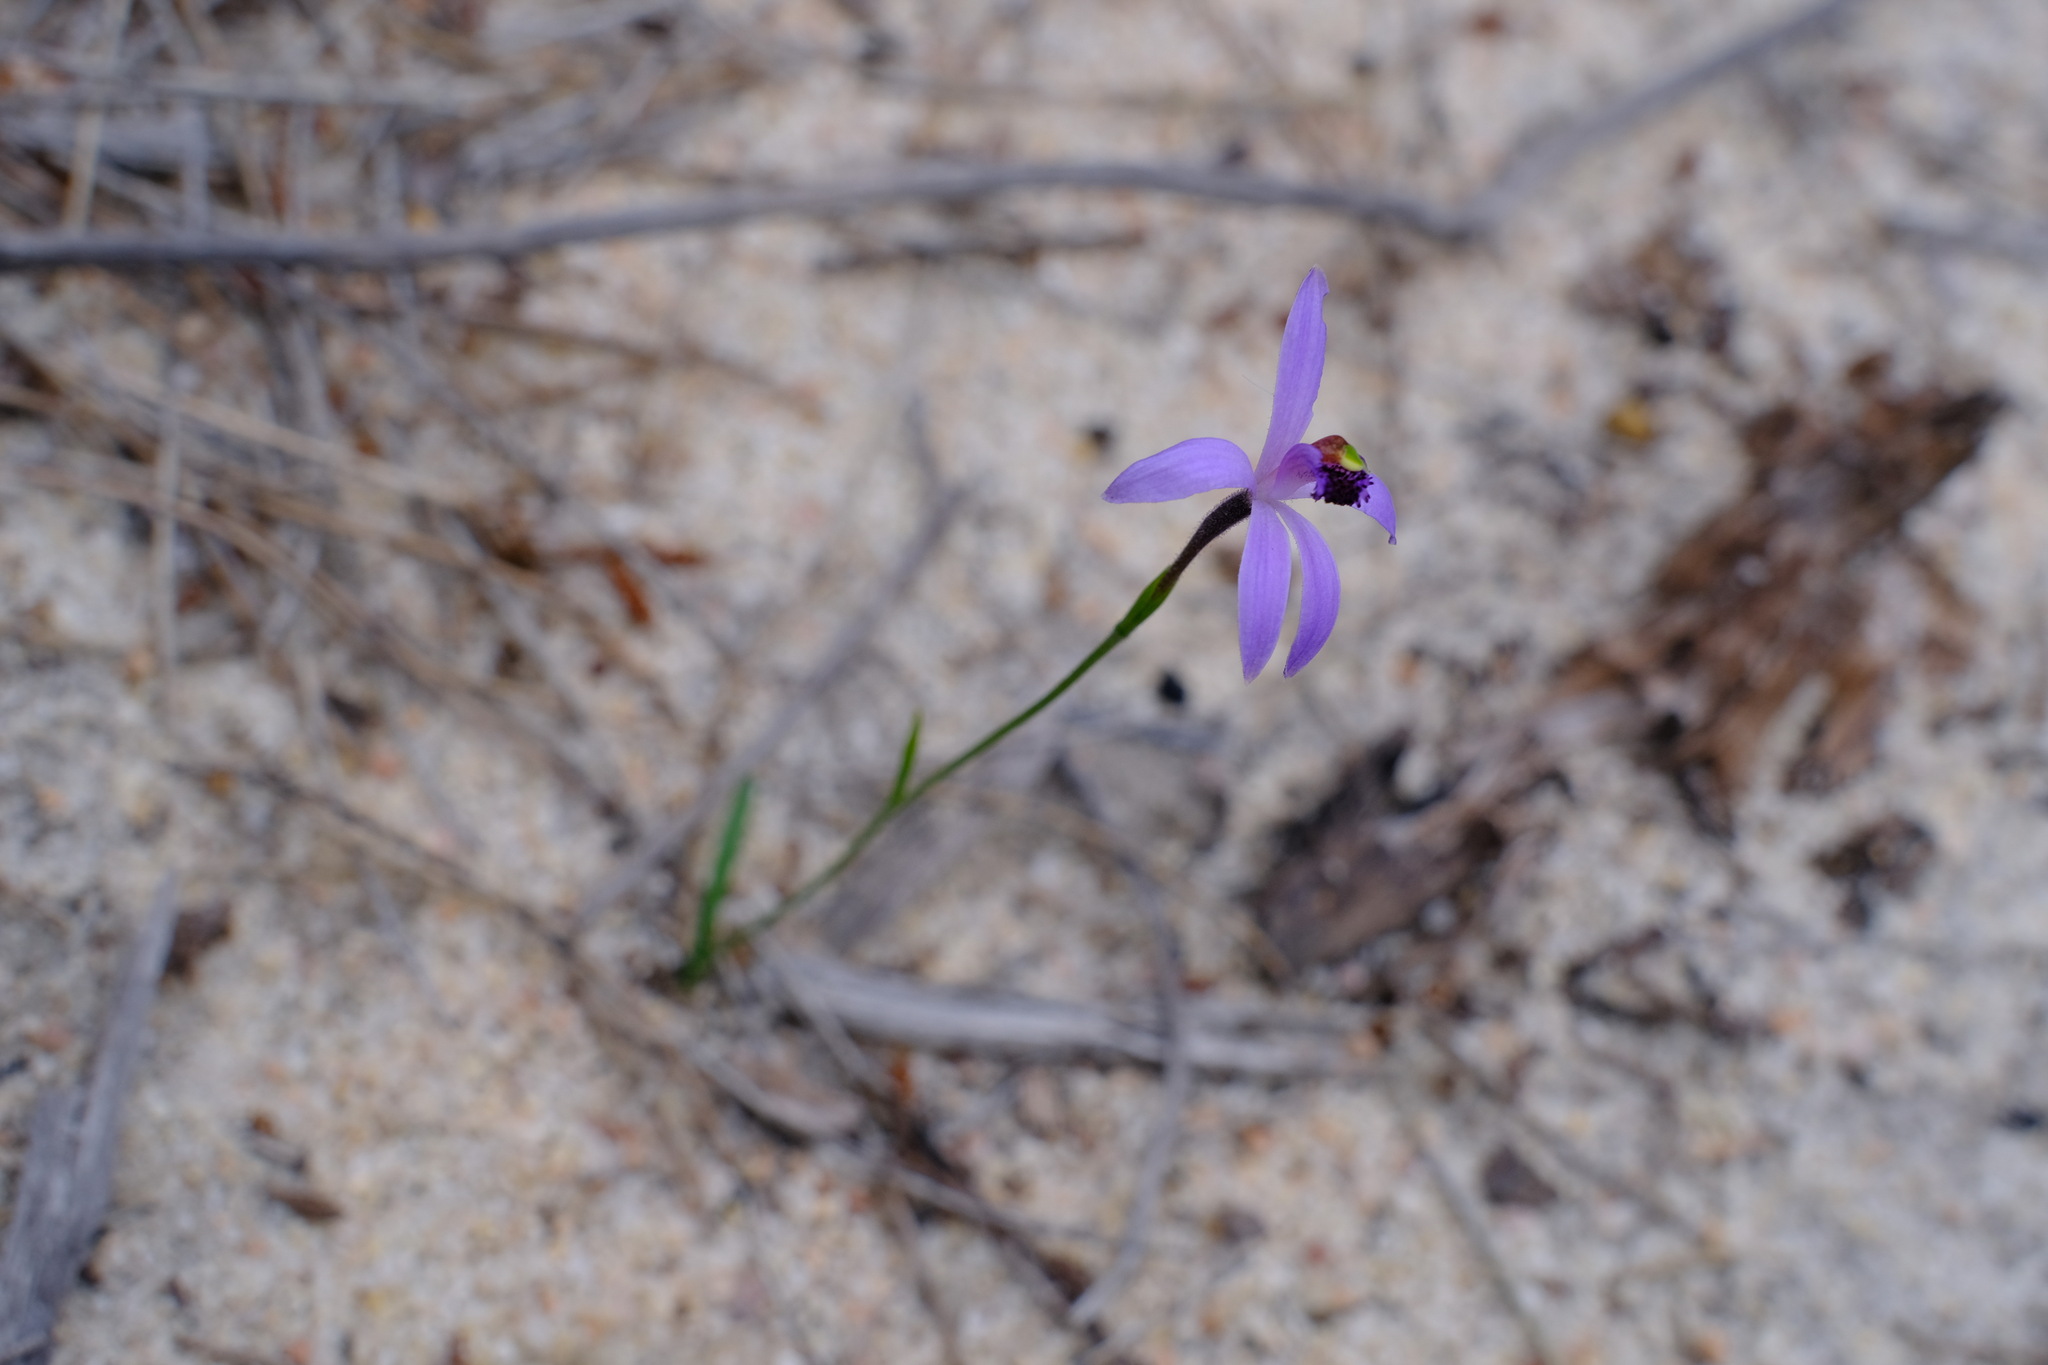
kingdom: Plantae
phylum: Tracheophyta
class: Liliopsida
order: Asparagales
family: Orchidaceae
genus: Pheladenia
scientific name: Pheladenia deformis
